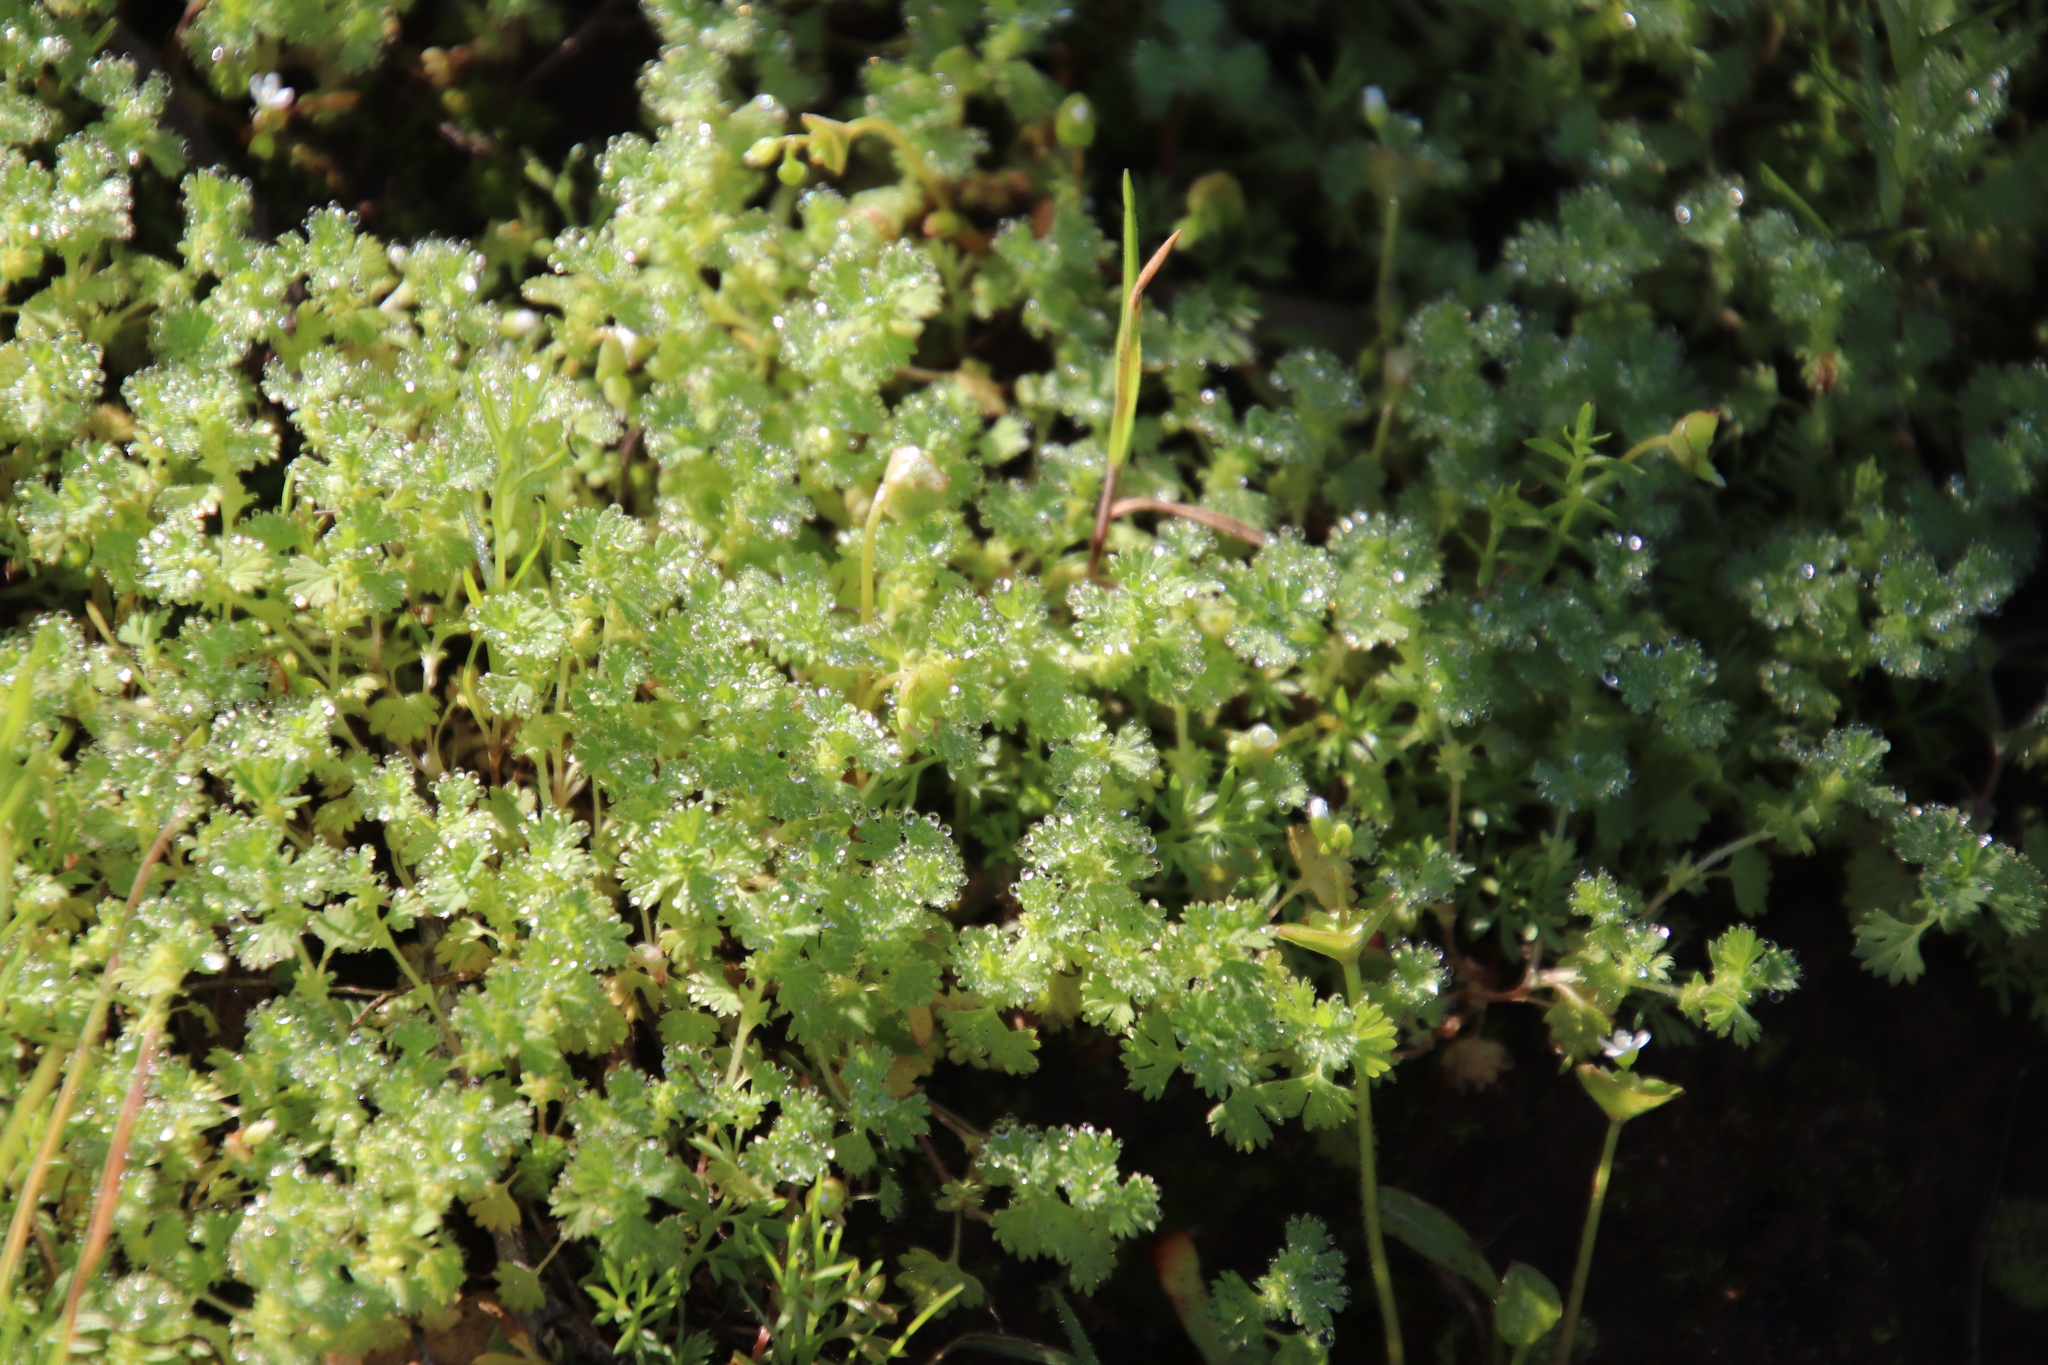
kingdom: Plantae
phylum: Tracheophyta
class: Magnoliopsida
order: Rosales
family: Rosaceae
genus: Aphanes
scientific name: Aphanes arvensis
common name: Parsley-piert
